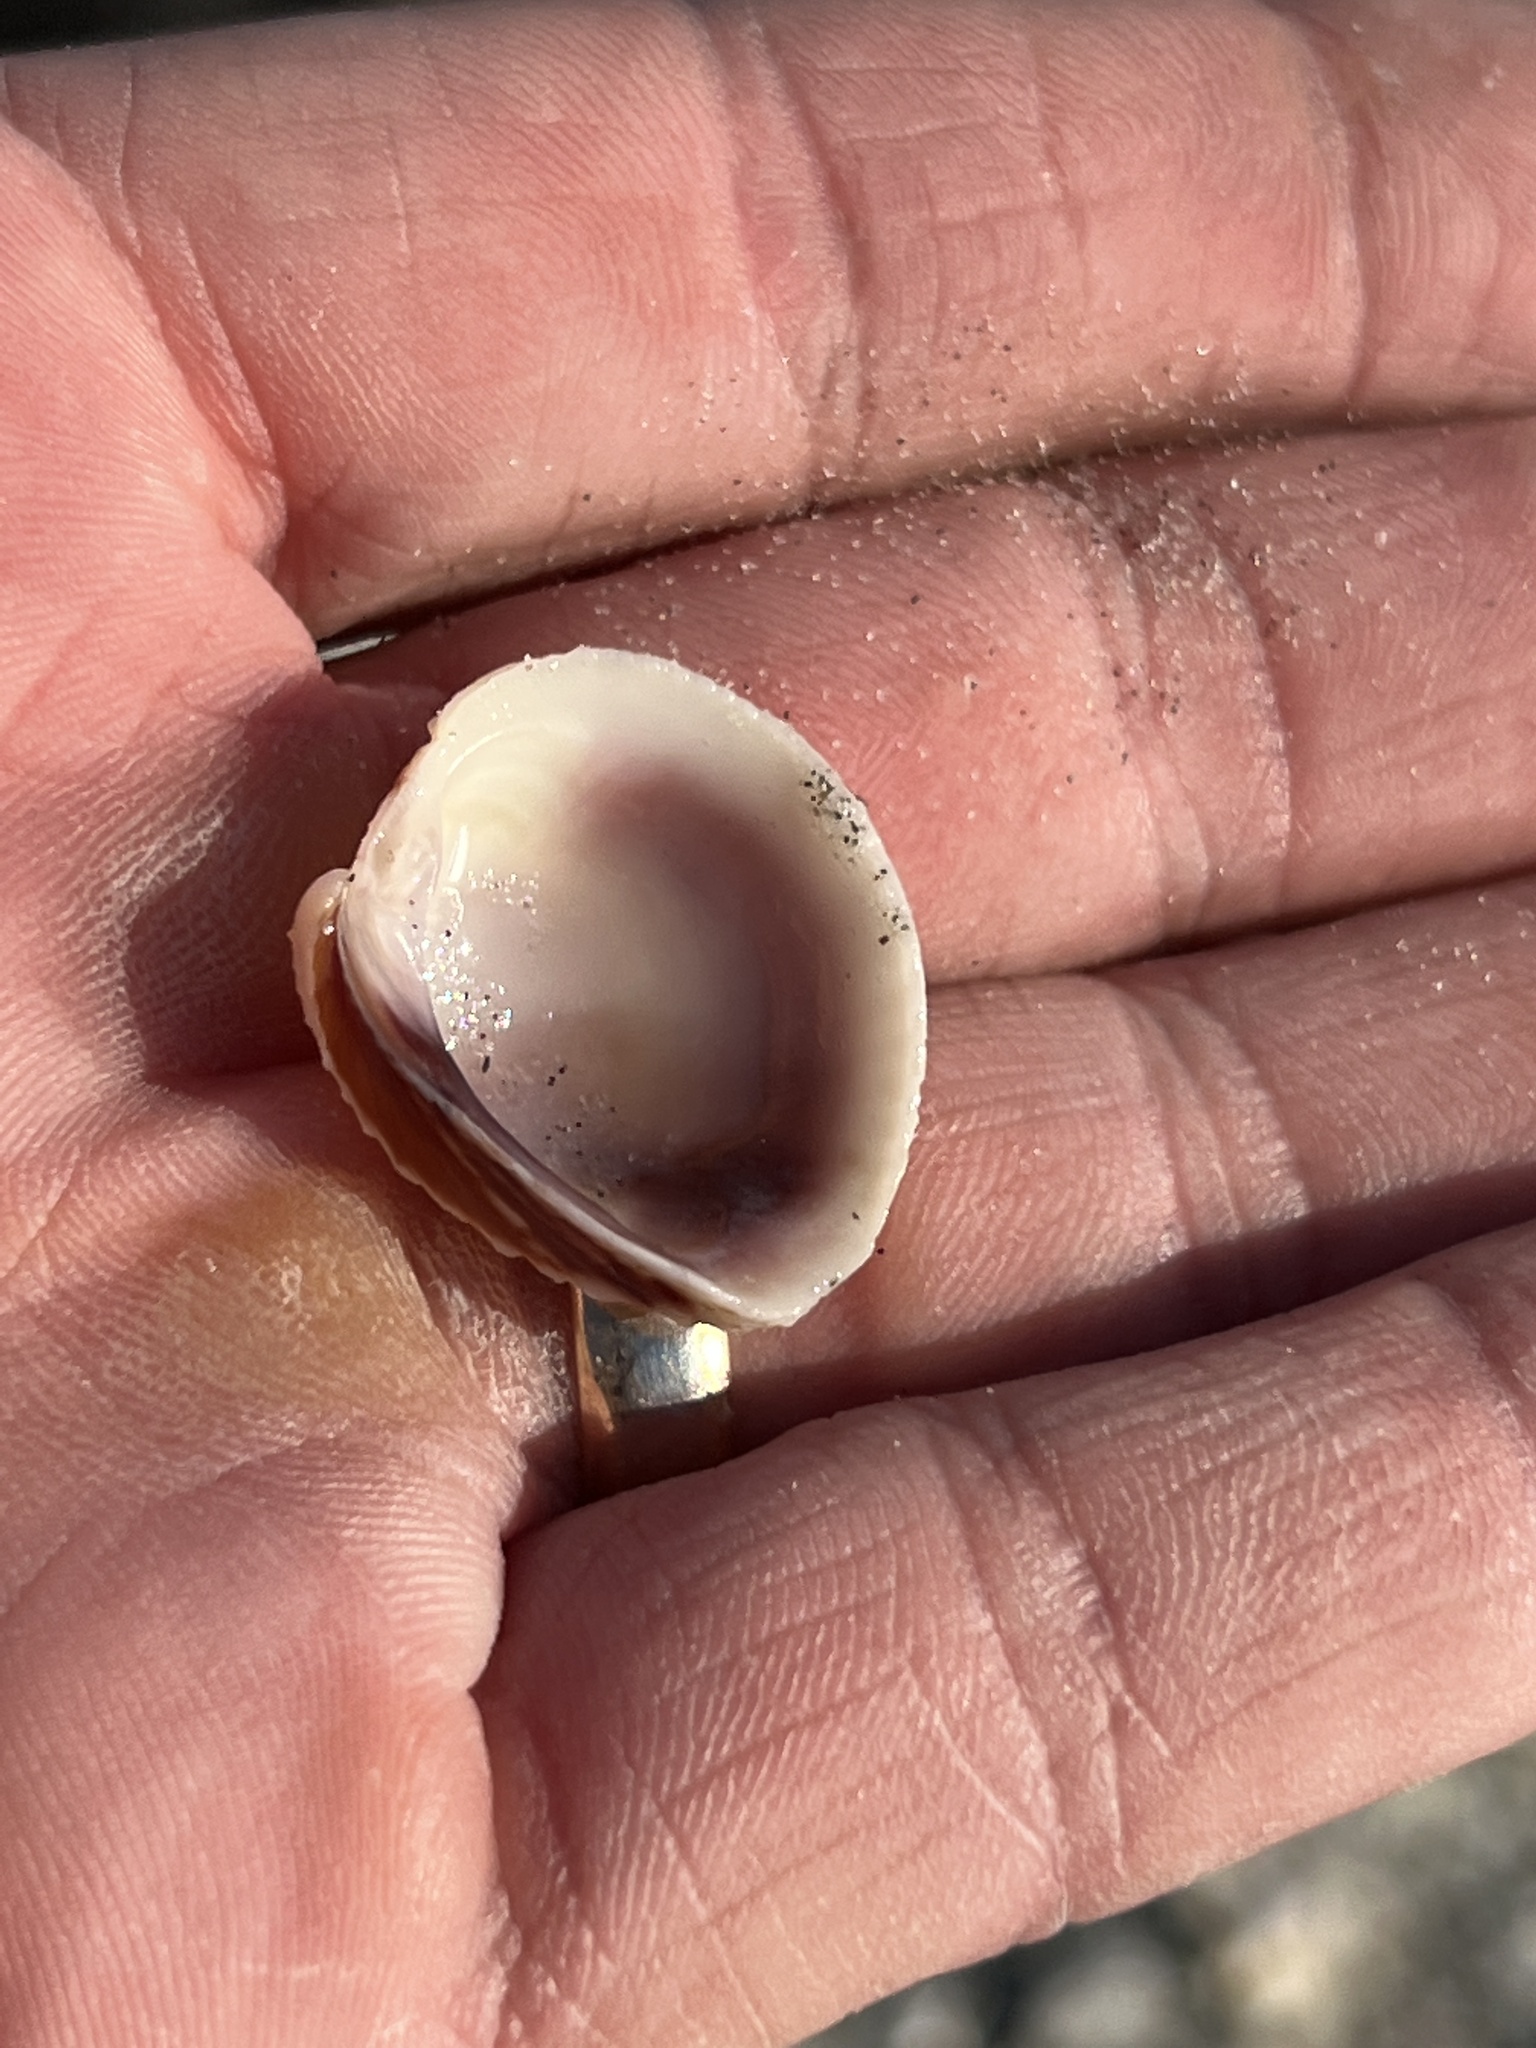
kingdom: Animalia
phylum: Mollusca
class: Bivalvia
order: Venerida
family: Veneridae
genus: Chione
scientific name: Chione elevata
